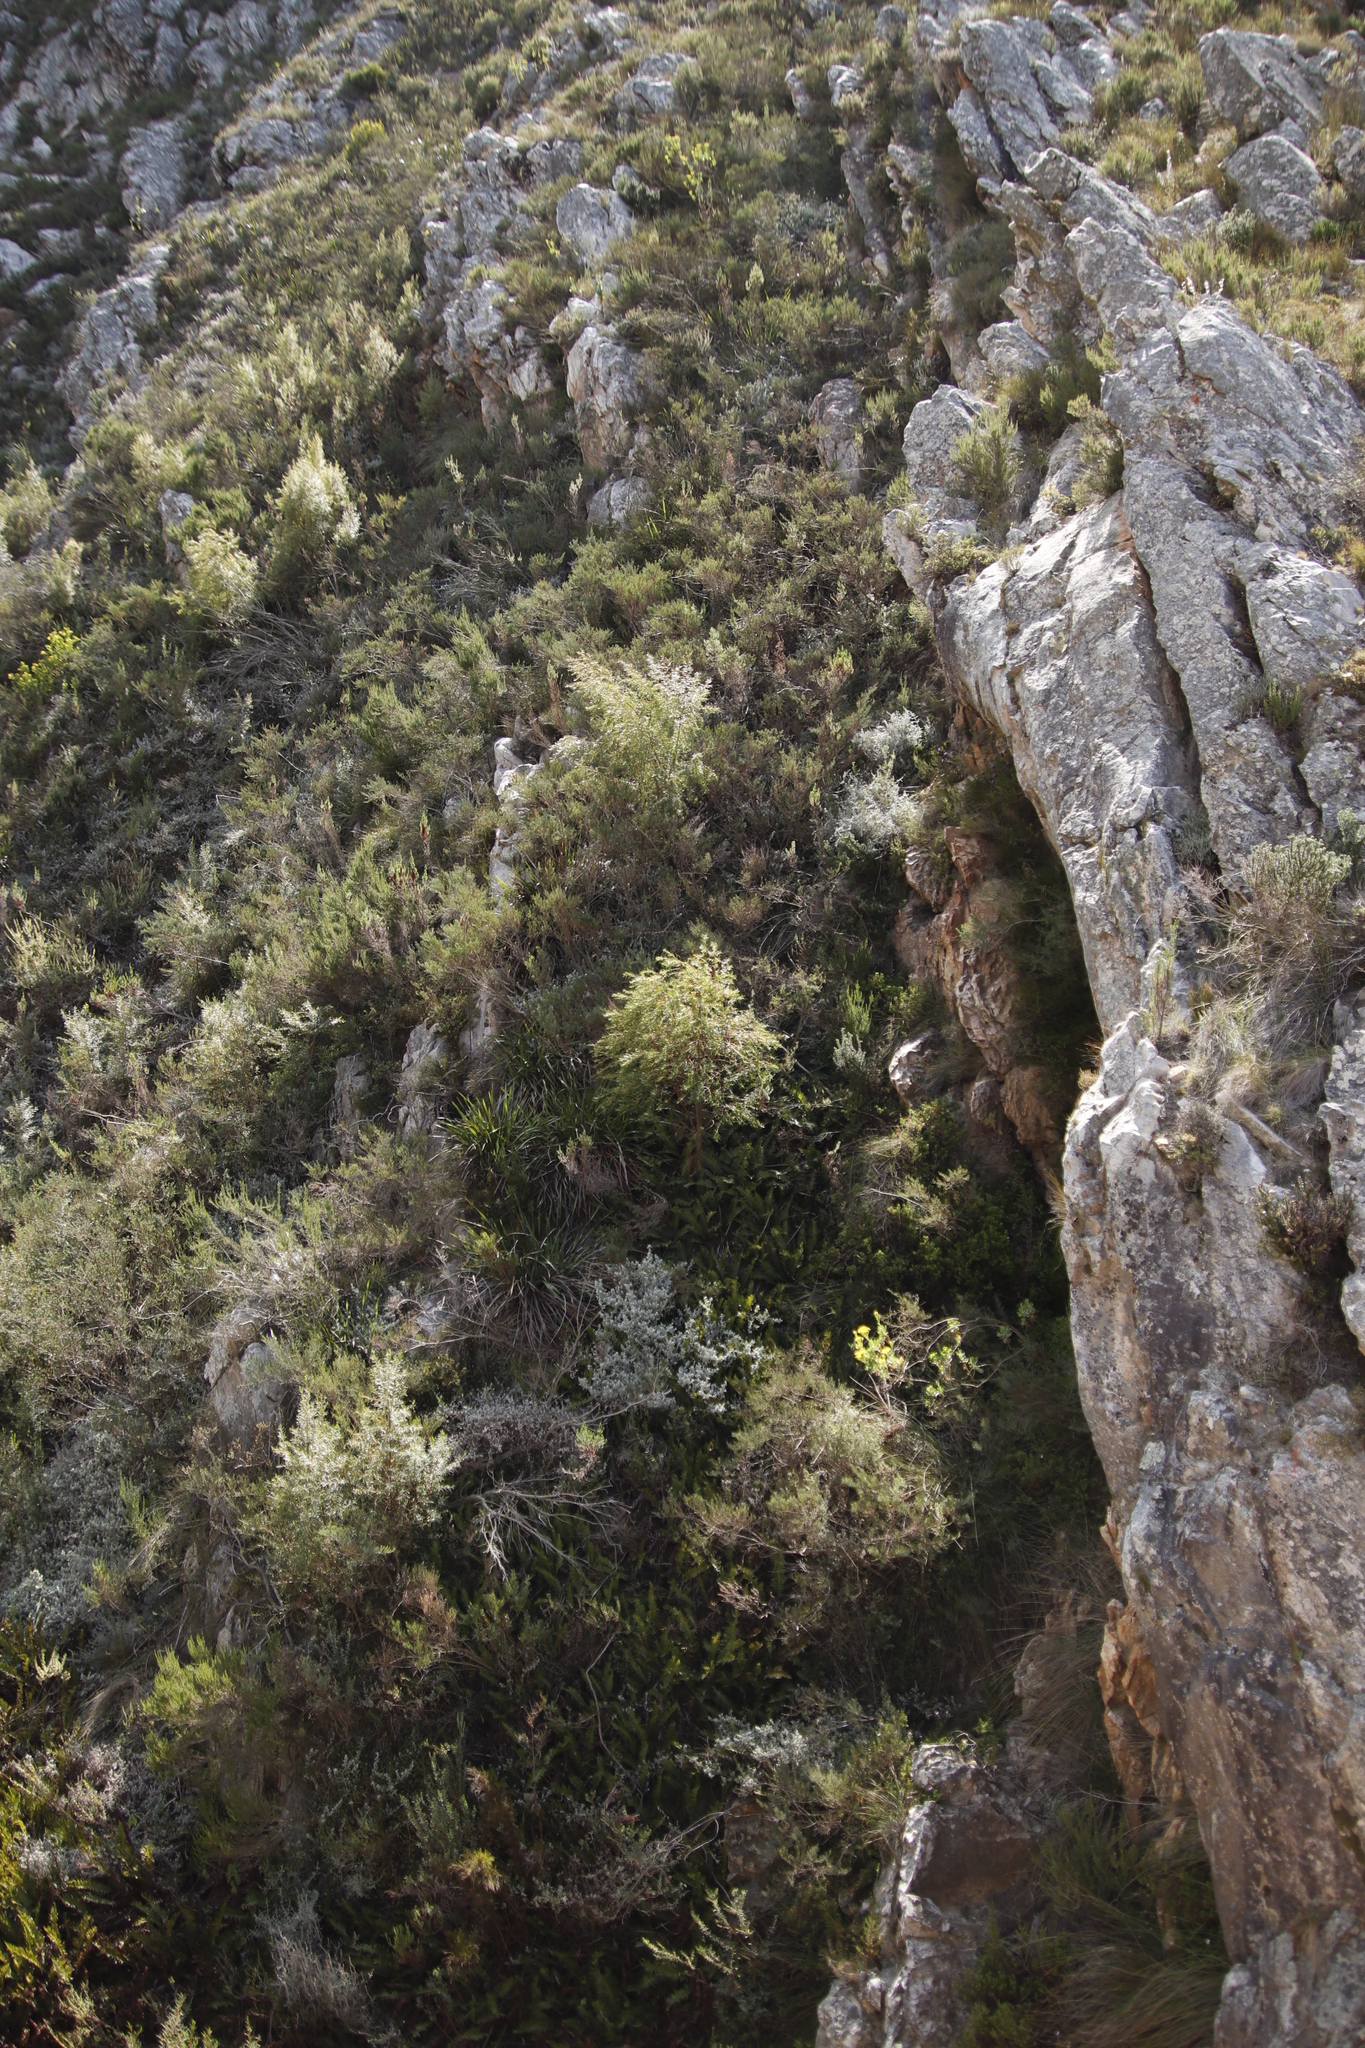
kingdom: Plantae
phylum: Tracheophyta
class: Magnoliopsida
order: Sapindales
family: Rutaceae
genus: Empleurum
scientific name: Empleurum unicapsulare
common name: False buchu
